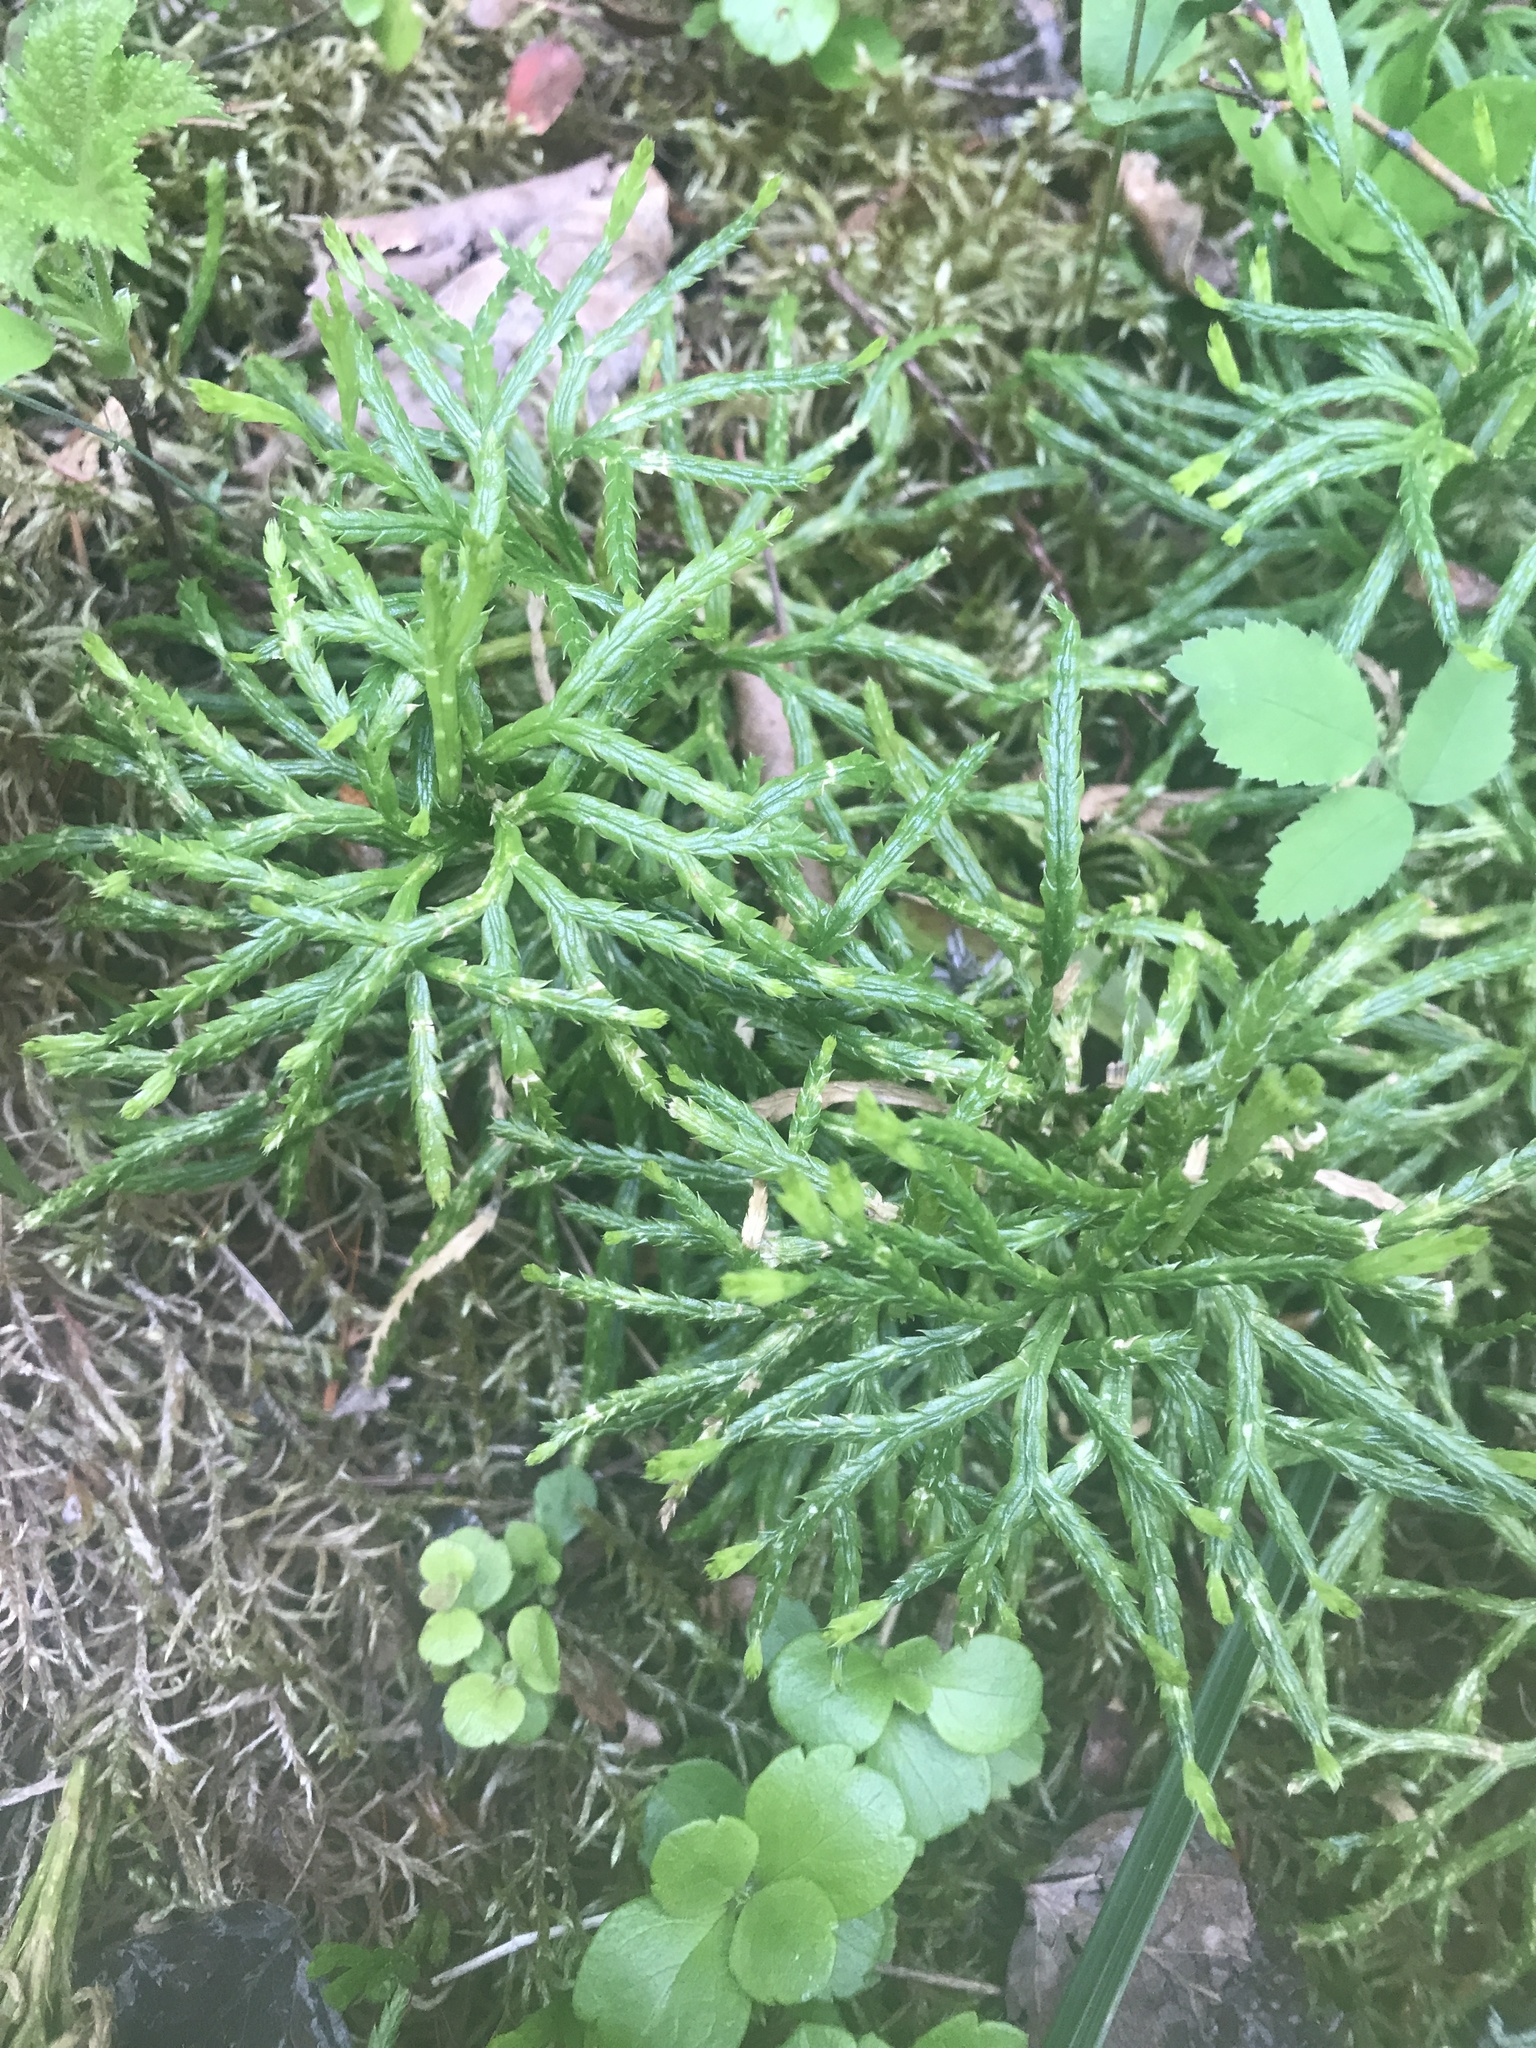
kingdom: Plantae
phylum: Tracheophyta
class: Lycopodiopsida
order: Lycopodiales
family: Lycopodiaceae
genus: Diphasiastrum
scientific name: Diphasiastrum complanatum
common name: Northern running-pine
